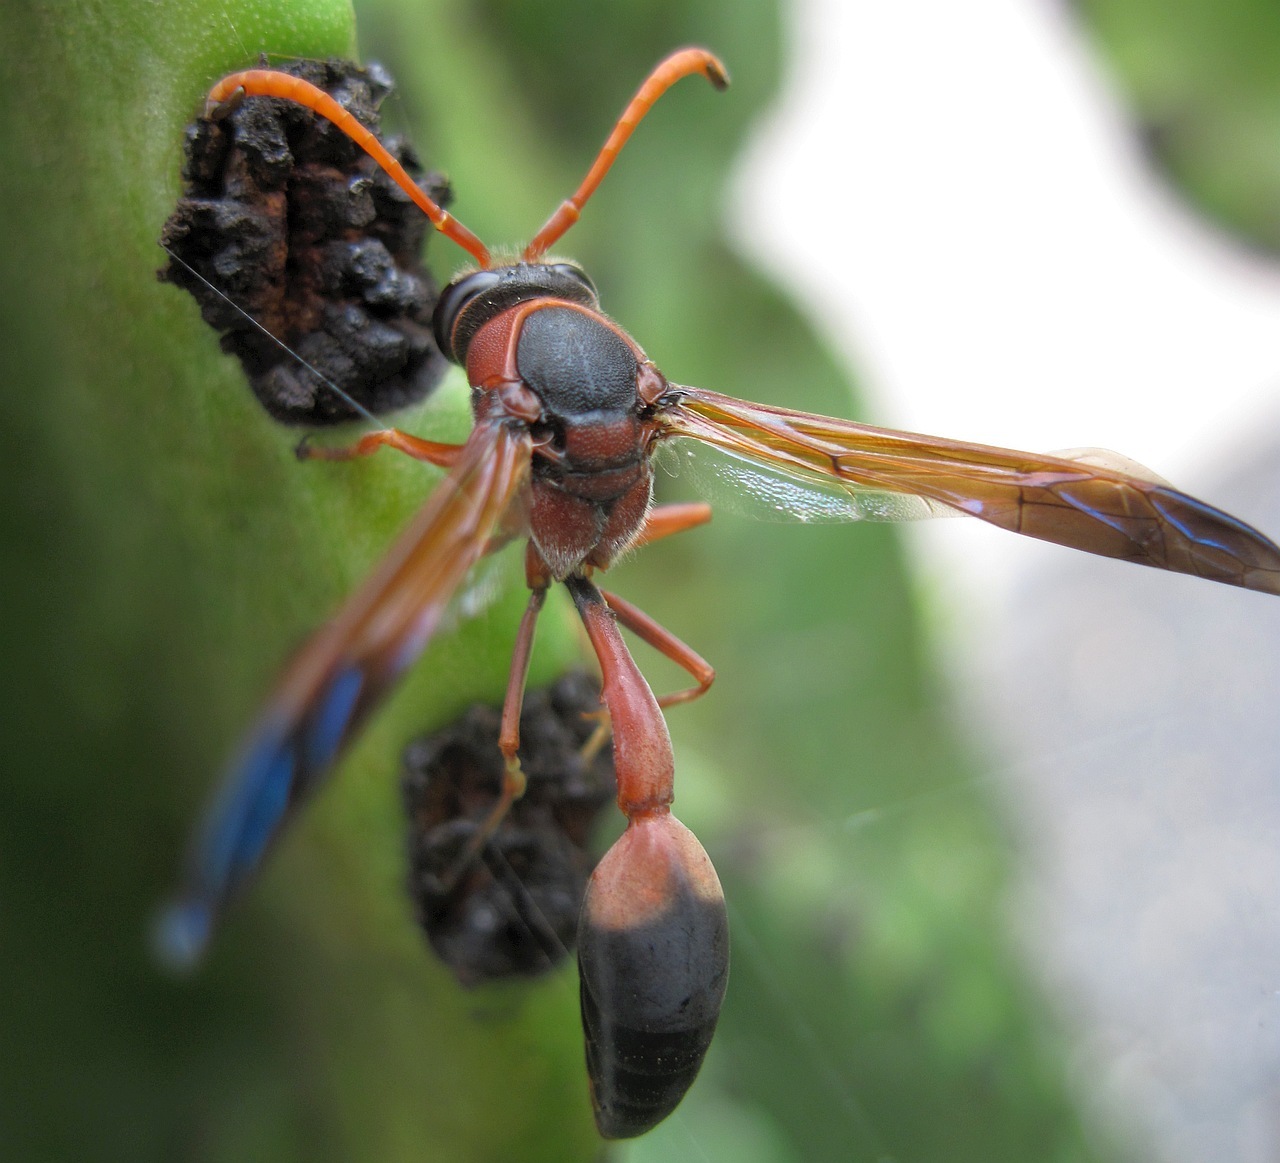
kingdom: Animalia
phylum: Arthropoda
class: Insecta
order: Hymenoptera
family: Eumenidae
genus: Delta
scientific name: Delta dimidiatipenne
